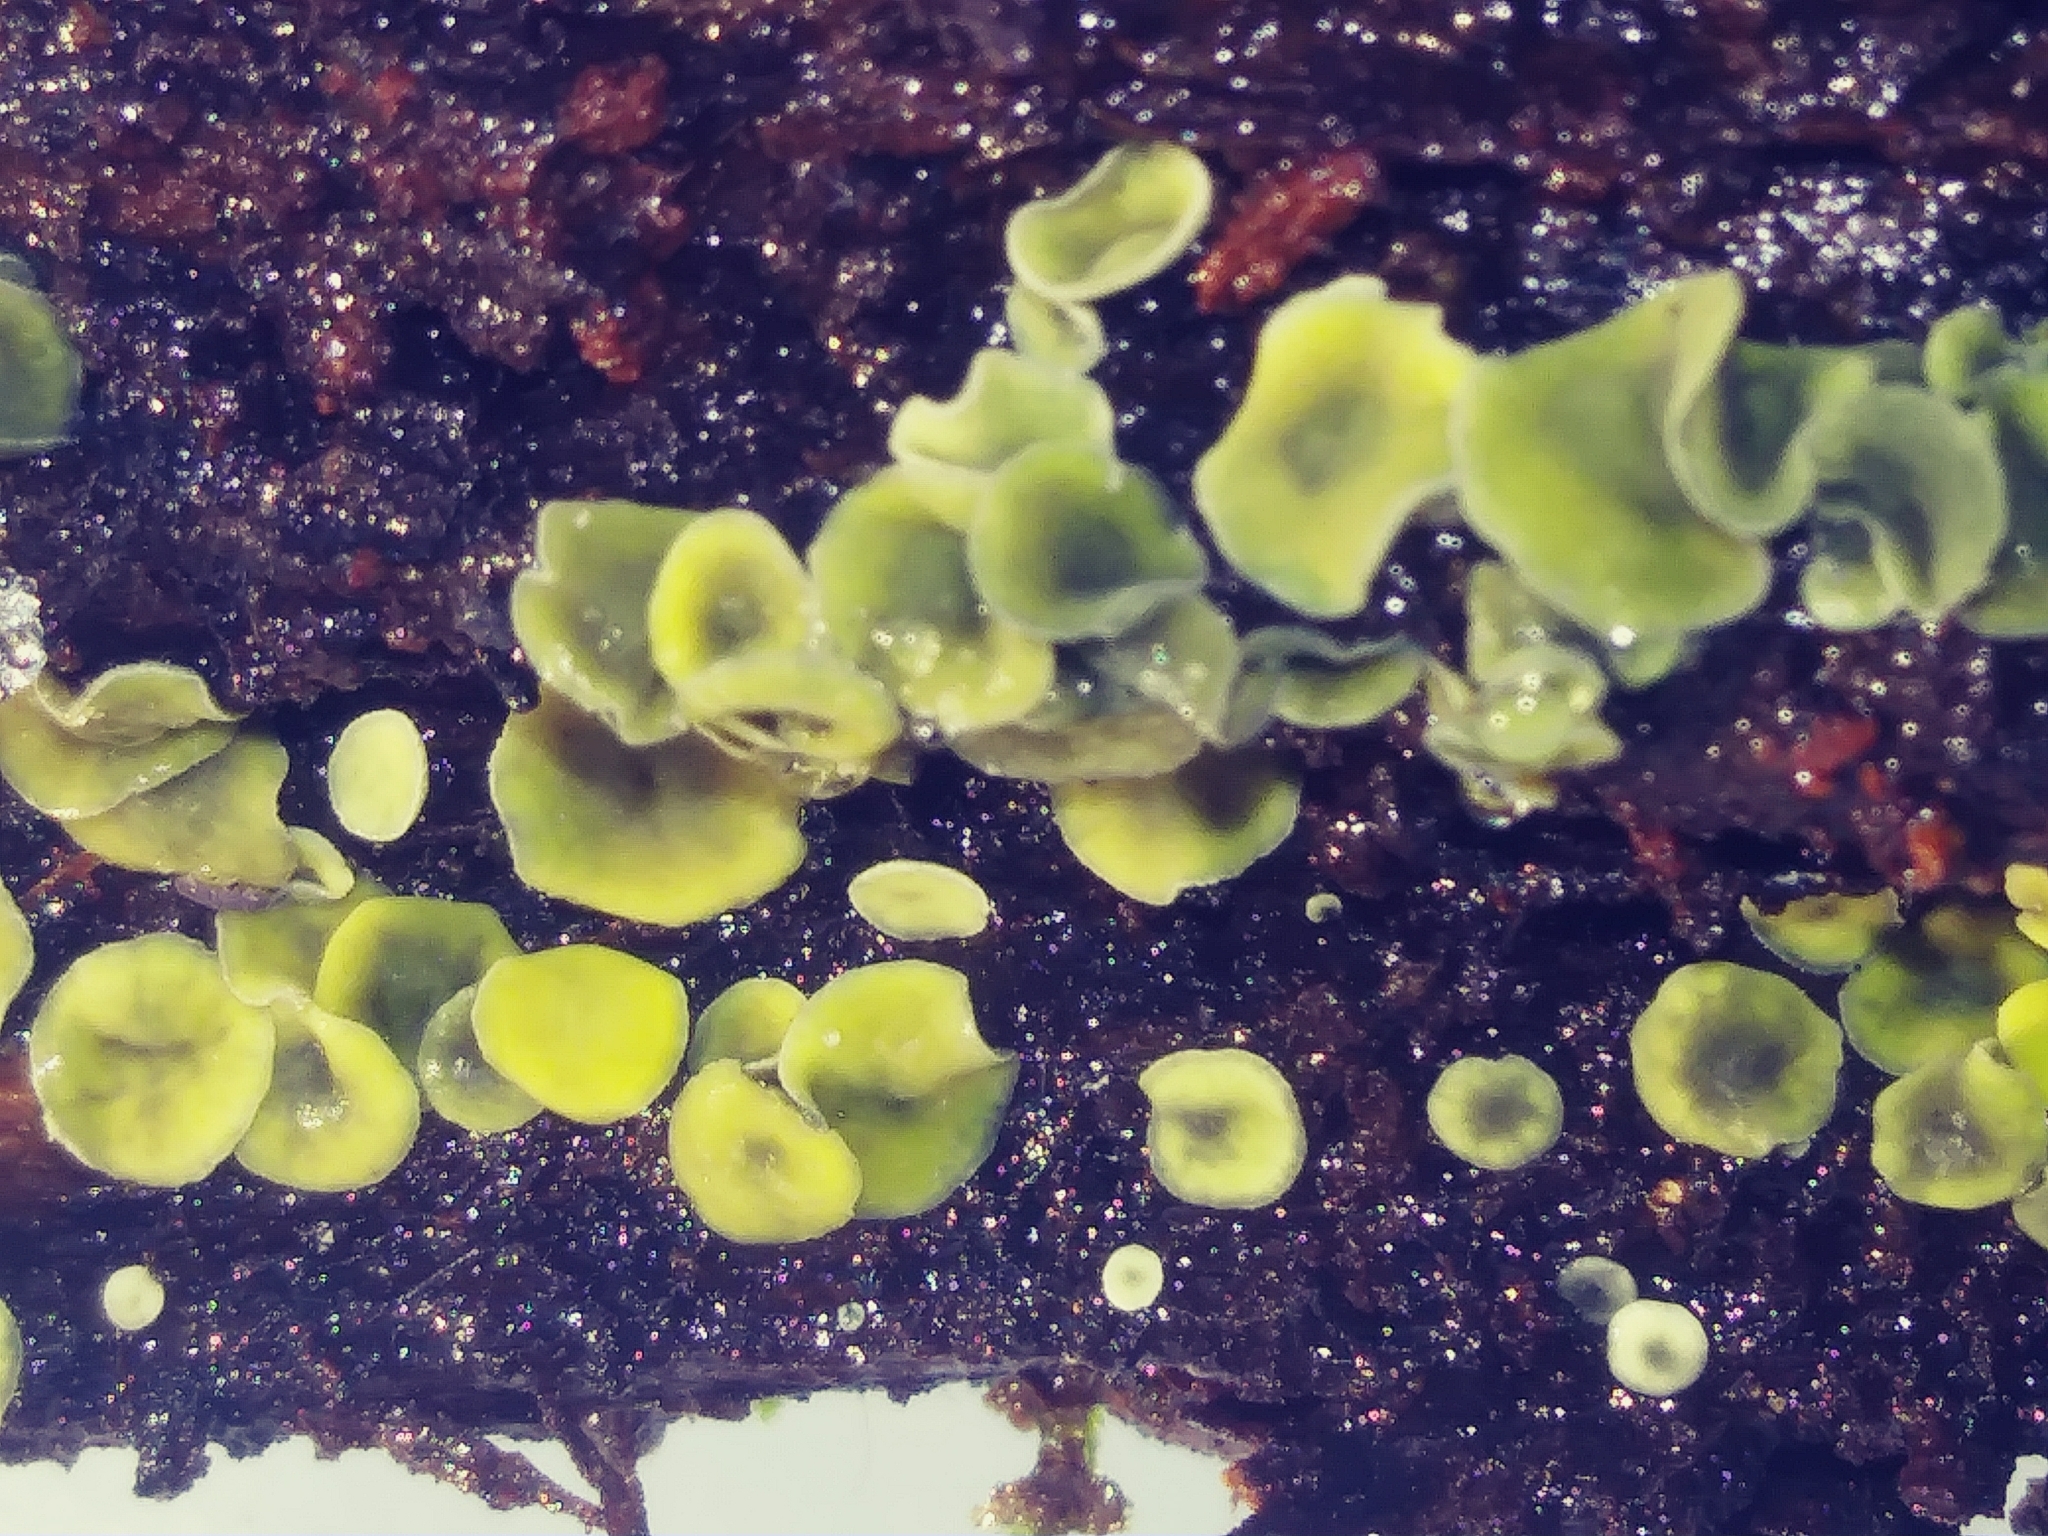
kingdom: Fungi
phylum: Ascomycota
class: Leotiomycetes
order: Helotiales
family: Chlorospleniaceae
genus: Chlorosplenium
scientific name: Chlorosplenium chlora
